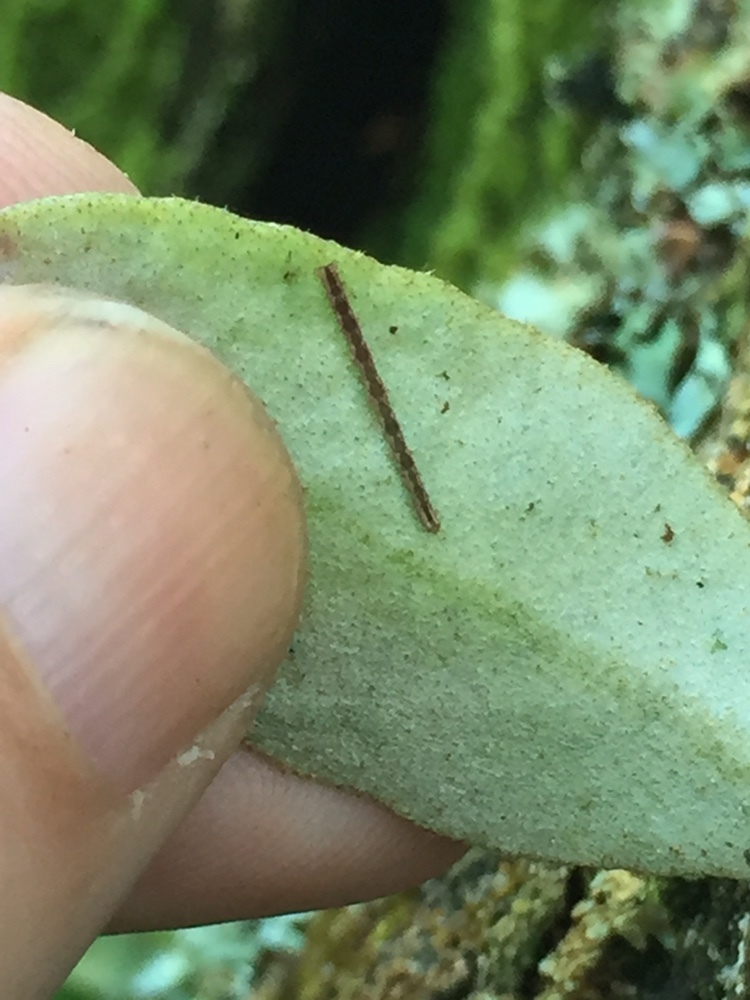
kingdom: Animalia
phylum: Arthropoda
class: Insecta
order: Lepidoptera
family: Geometridae
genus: Sarisa
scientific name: Sarisa muriferata
